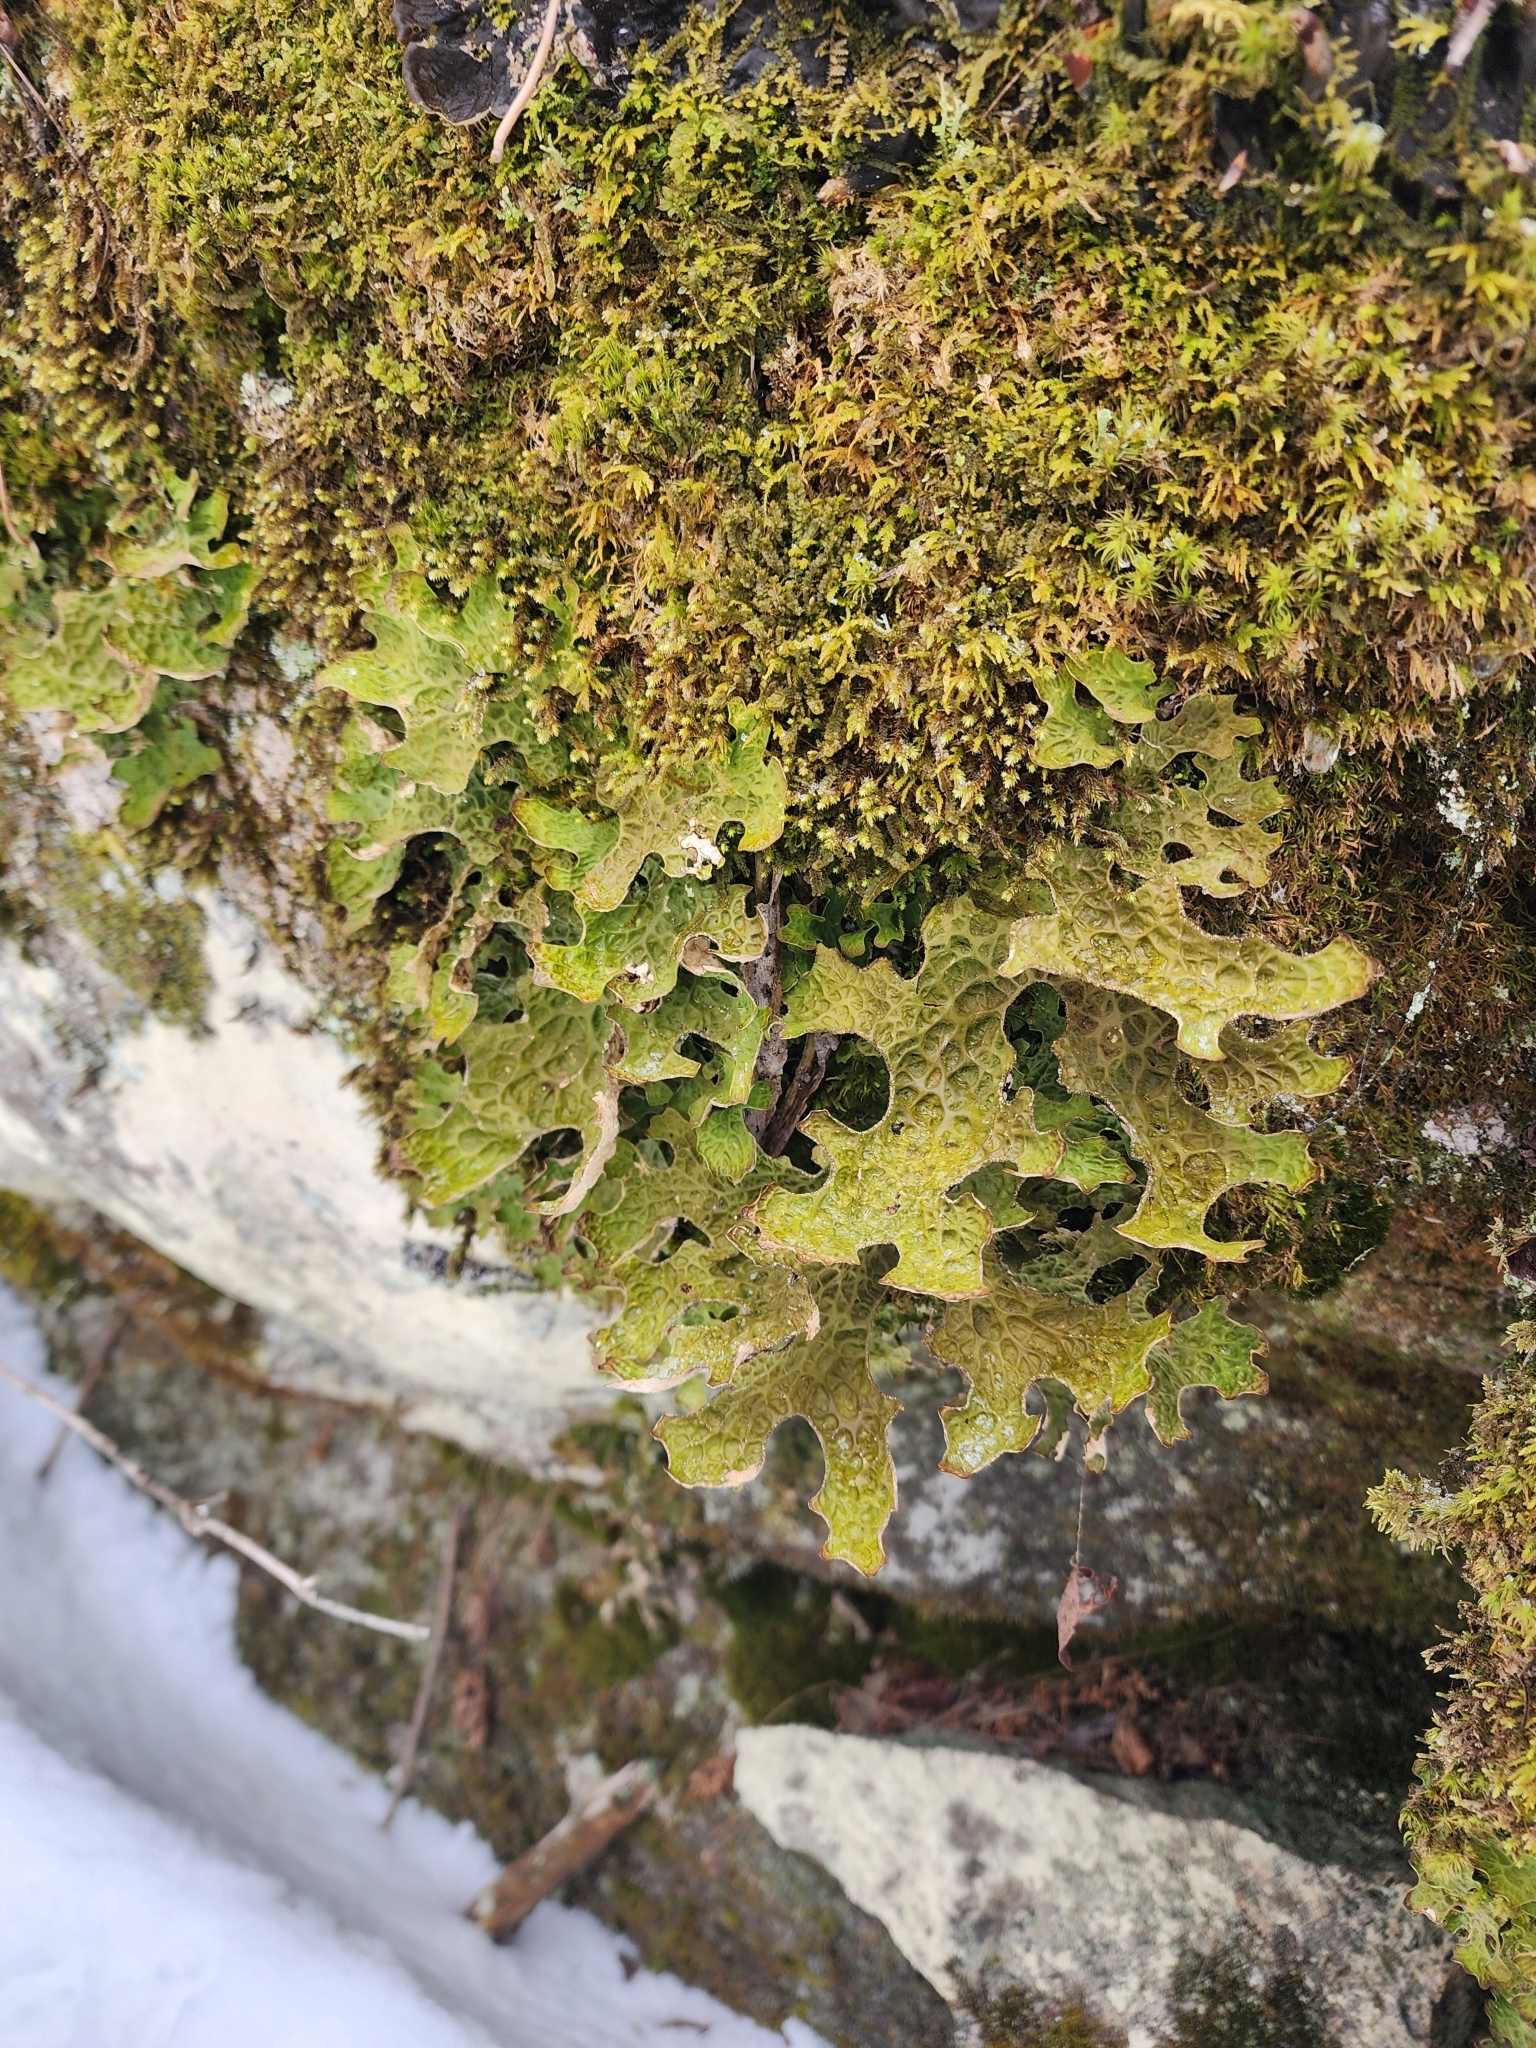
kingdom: Fungi
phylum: Ascomycota
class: Lecanoromycetes
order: Peltigerales
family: Lobariaceae
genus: Lobaria
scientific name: Lobaria pulmonaria
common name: Lungwort
